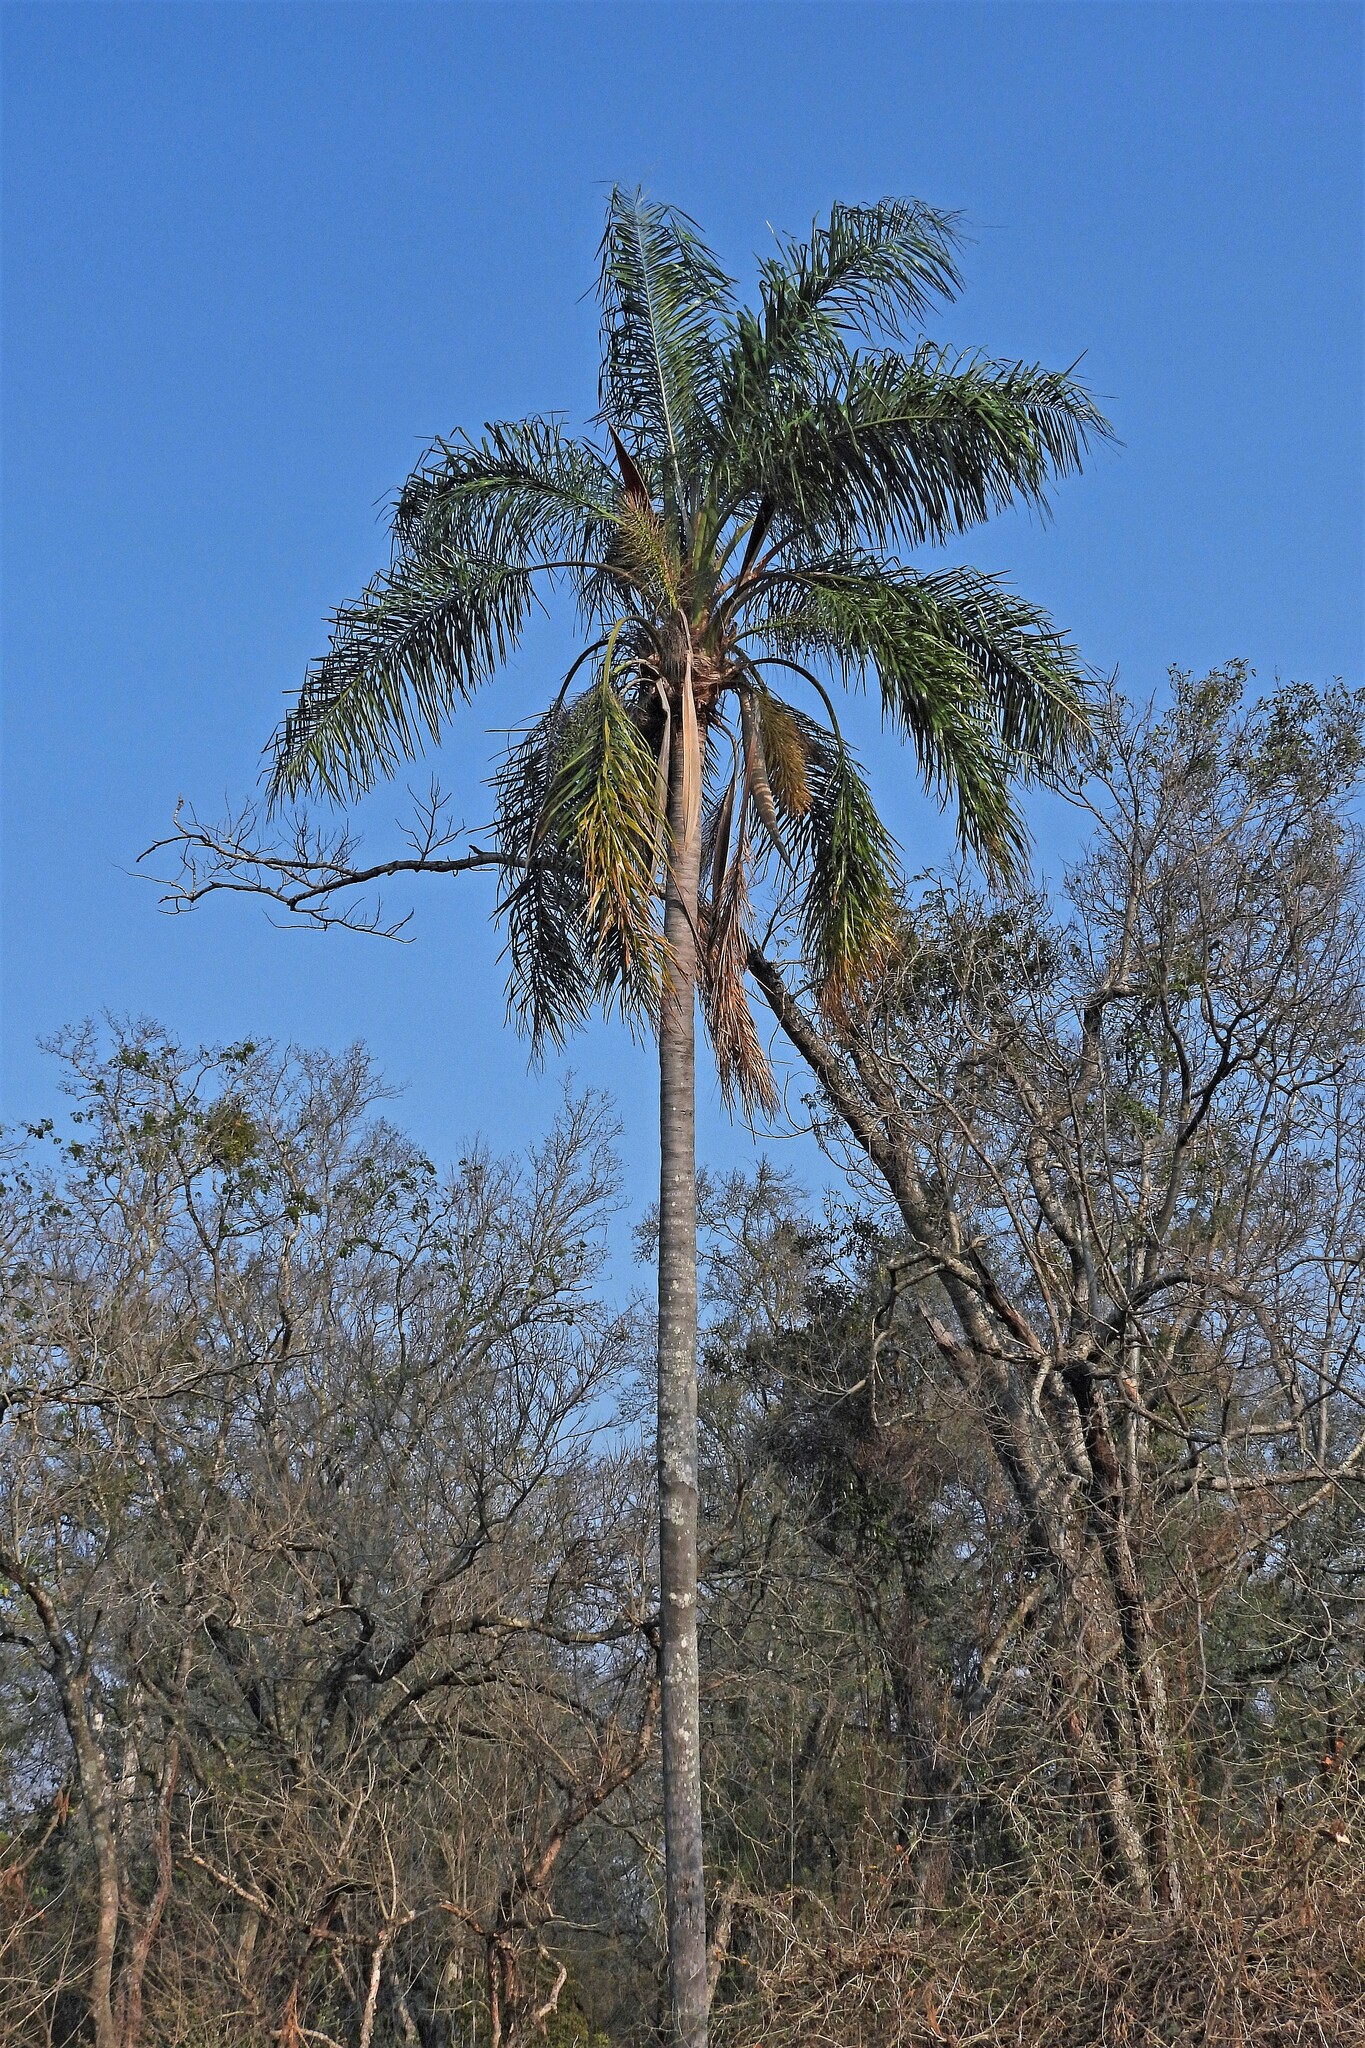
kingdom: Plantae
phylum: Tracheophyta
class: Liliopsida
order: Arecales
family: Arecaceae
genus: Syagrus
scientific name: Syagrus romanzoffiana
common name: Queen palm
